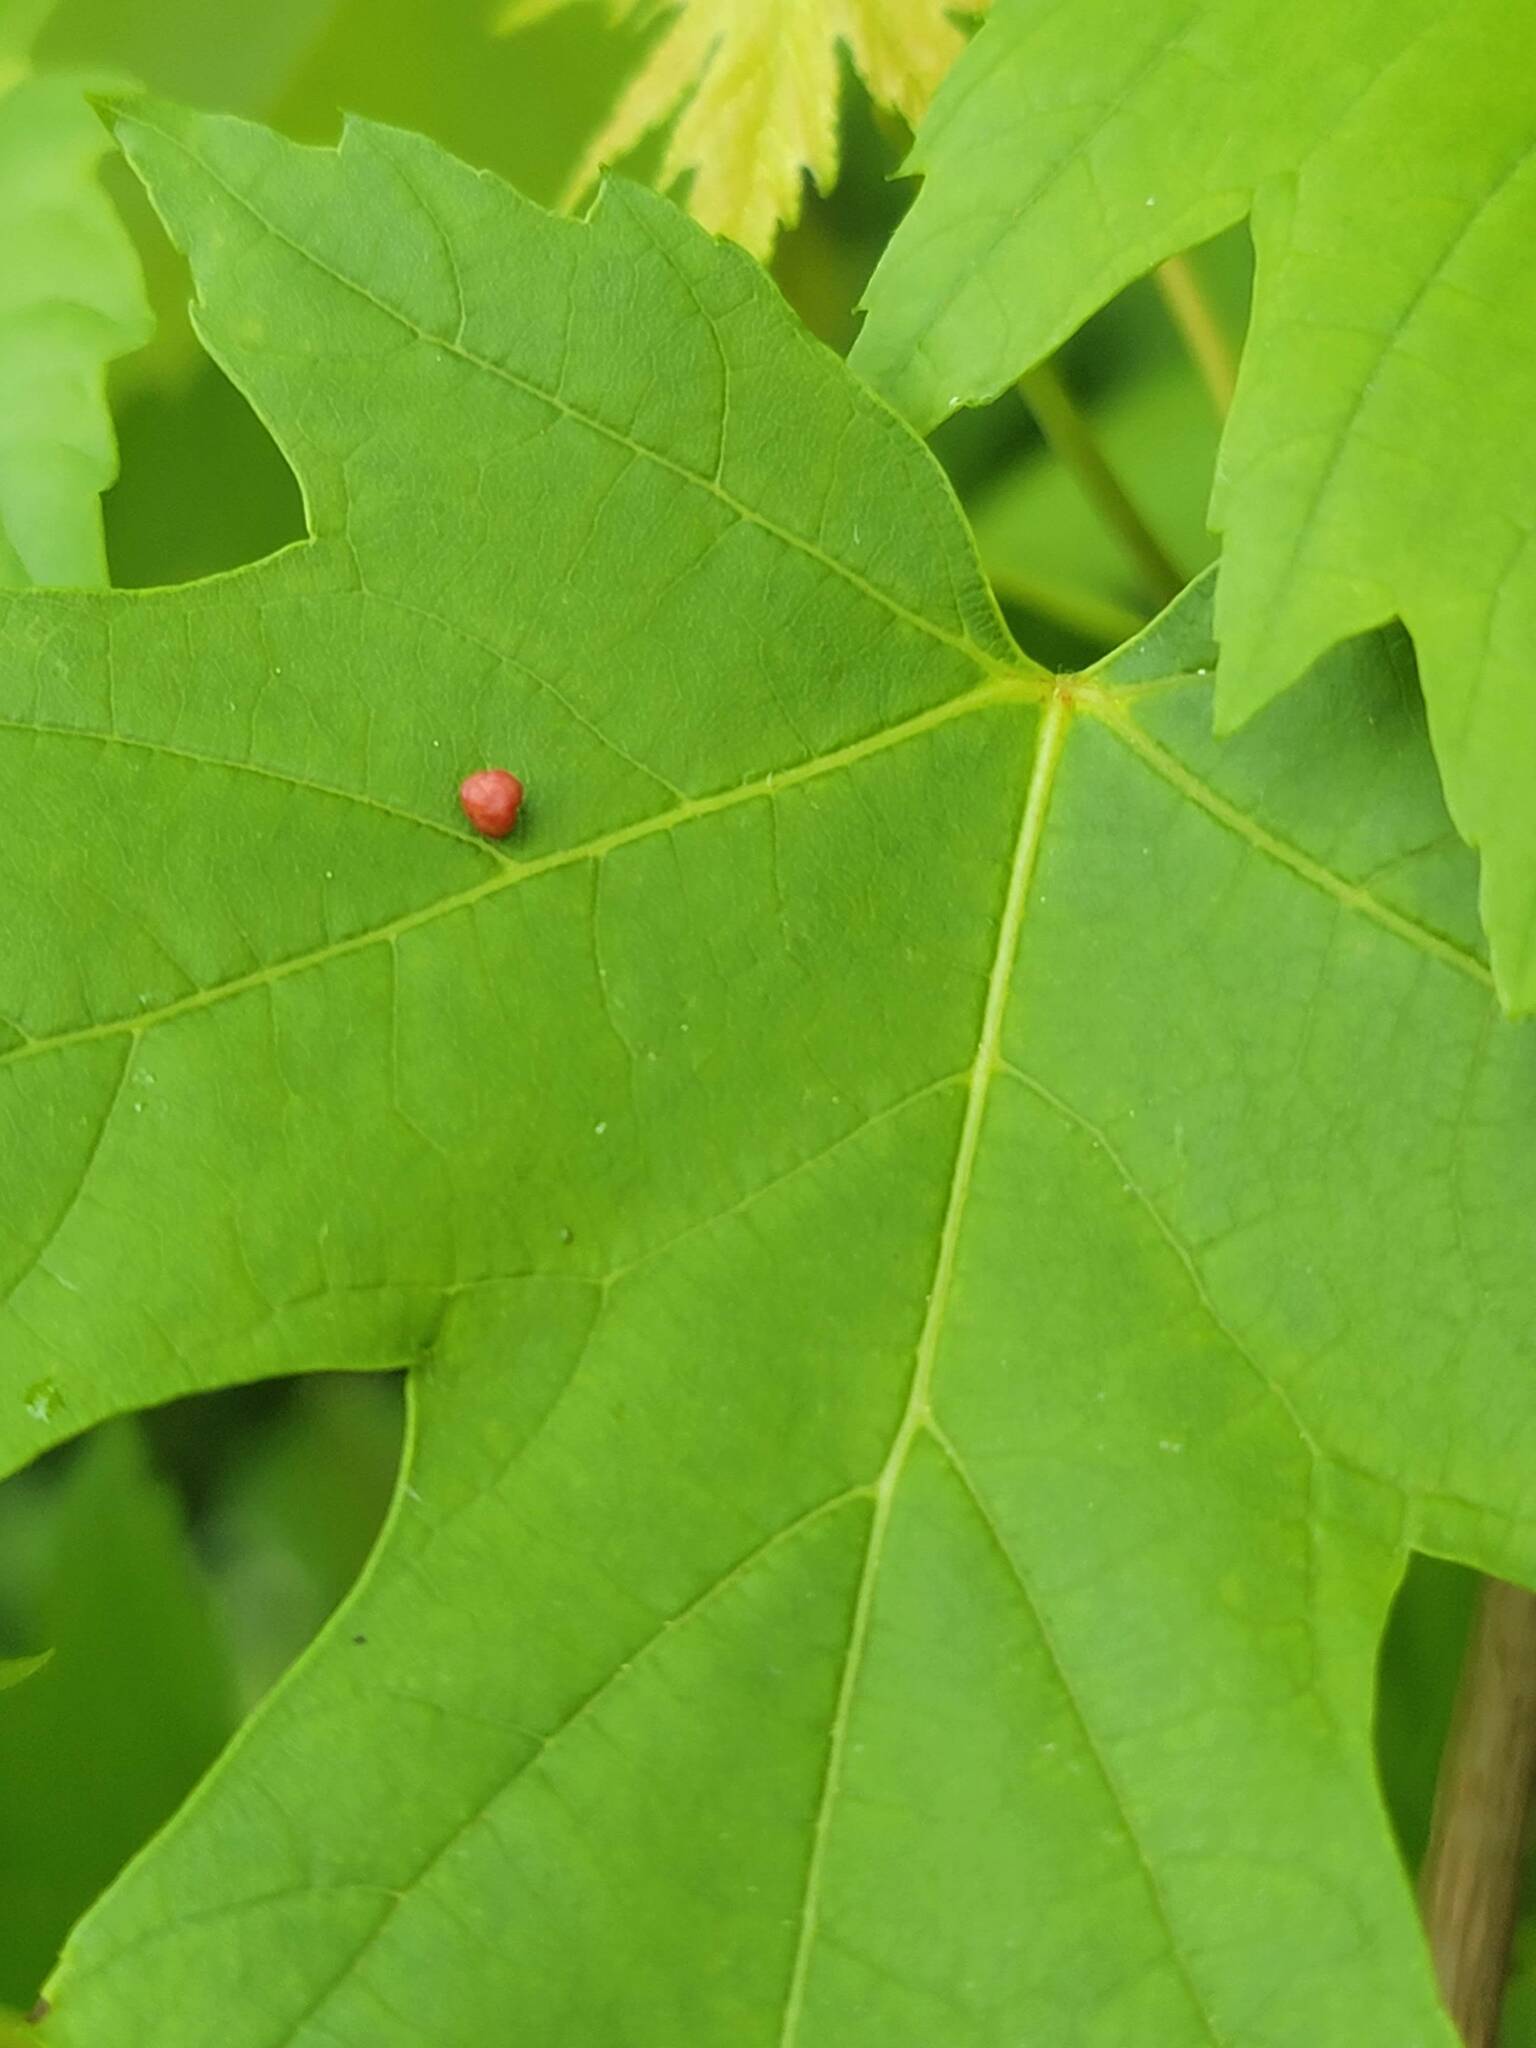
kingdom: Animalia
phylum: Arthropoda
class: Arachnida
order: Trombidiformes
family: Eriophyidae
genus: Vasates
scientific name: Vasates quadripedes
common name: Maple bladder gall mite
